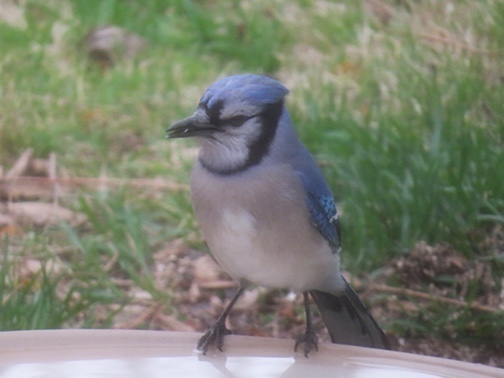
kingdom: Animalia
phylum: Chordata
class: Aves
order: Passeriformes
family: Corvidae
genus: Cyanocitta
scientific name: Cyanocitta cristata
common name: Blue jay
